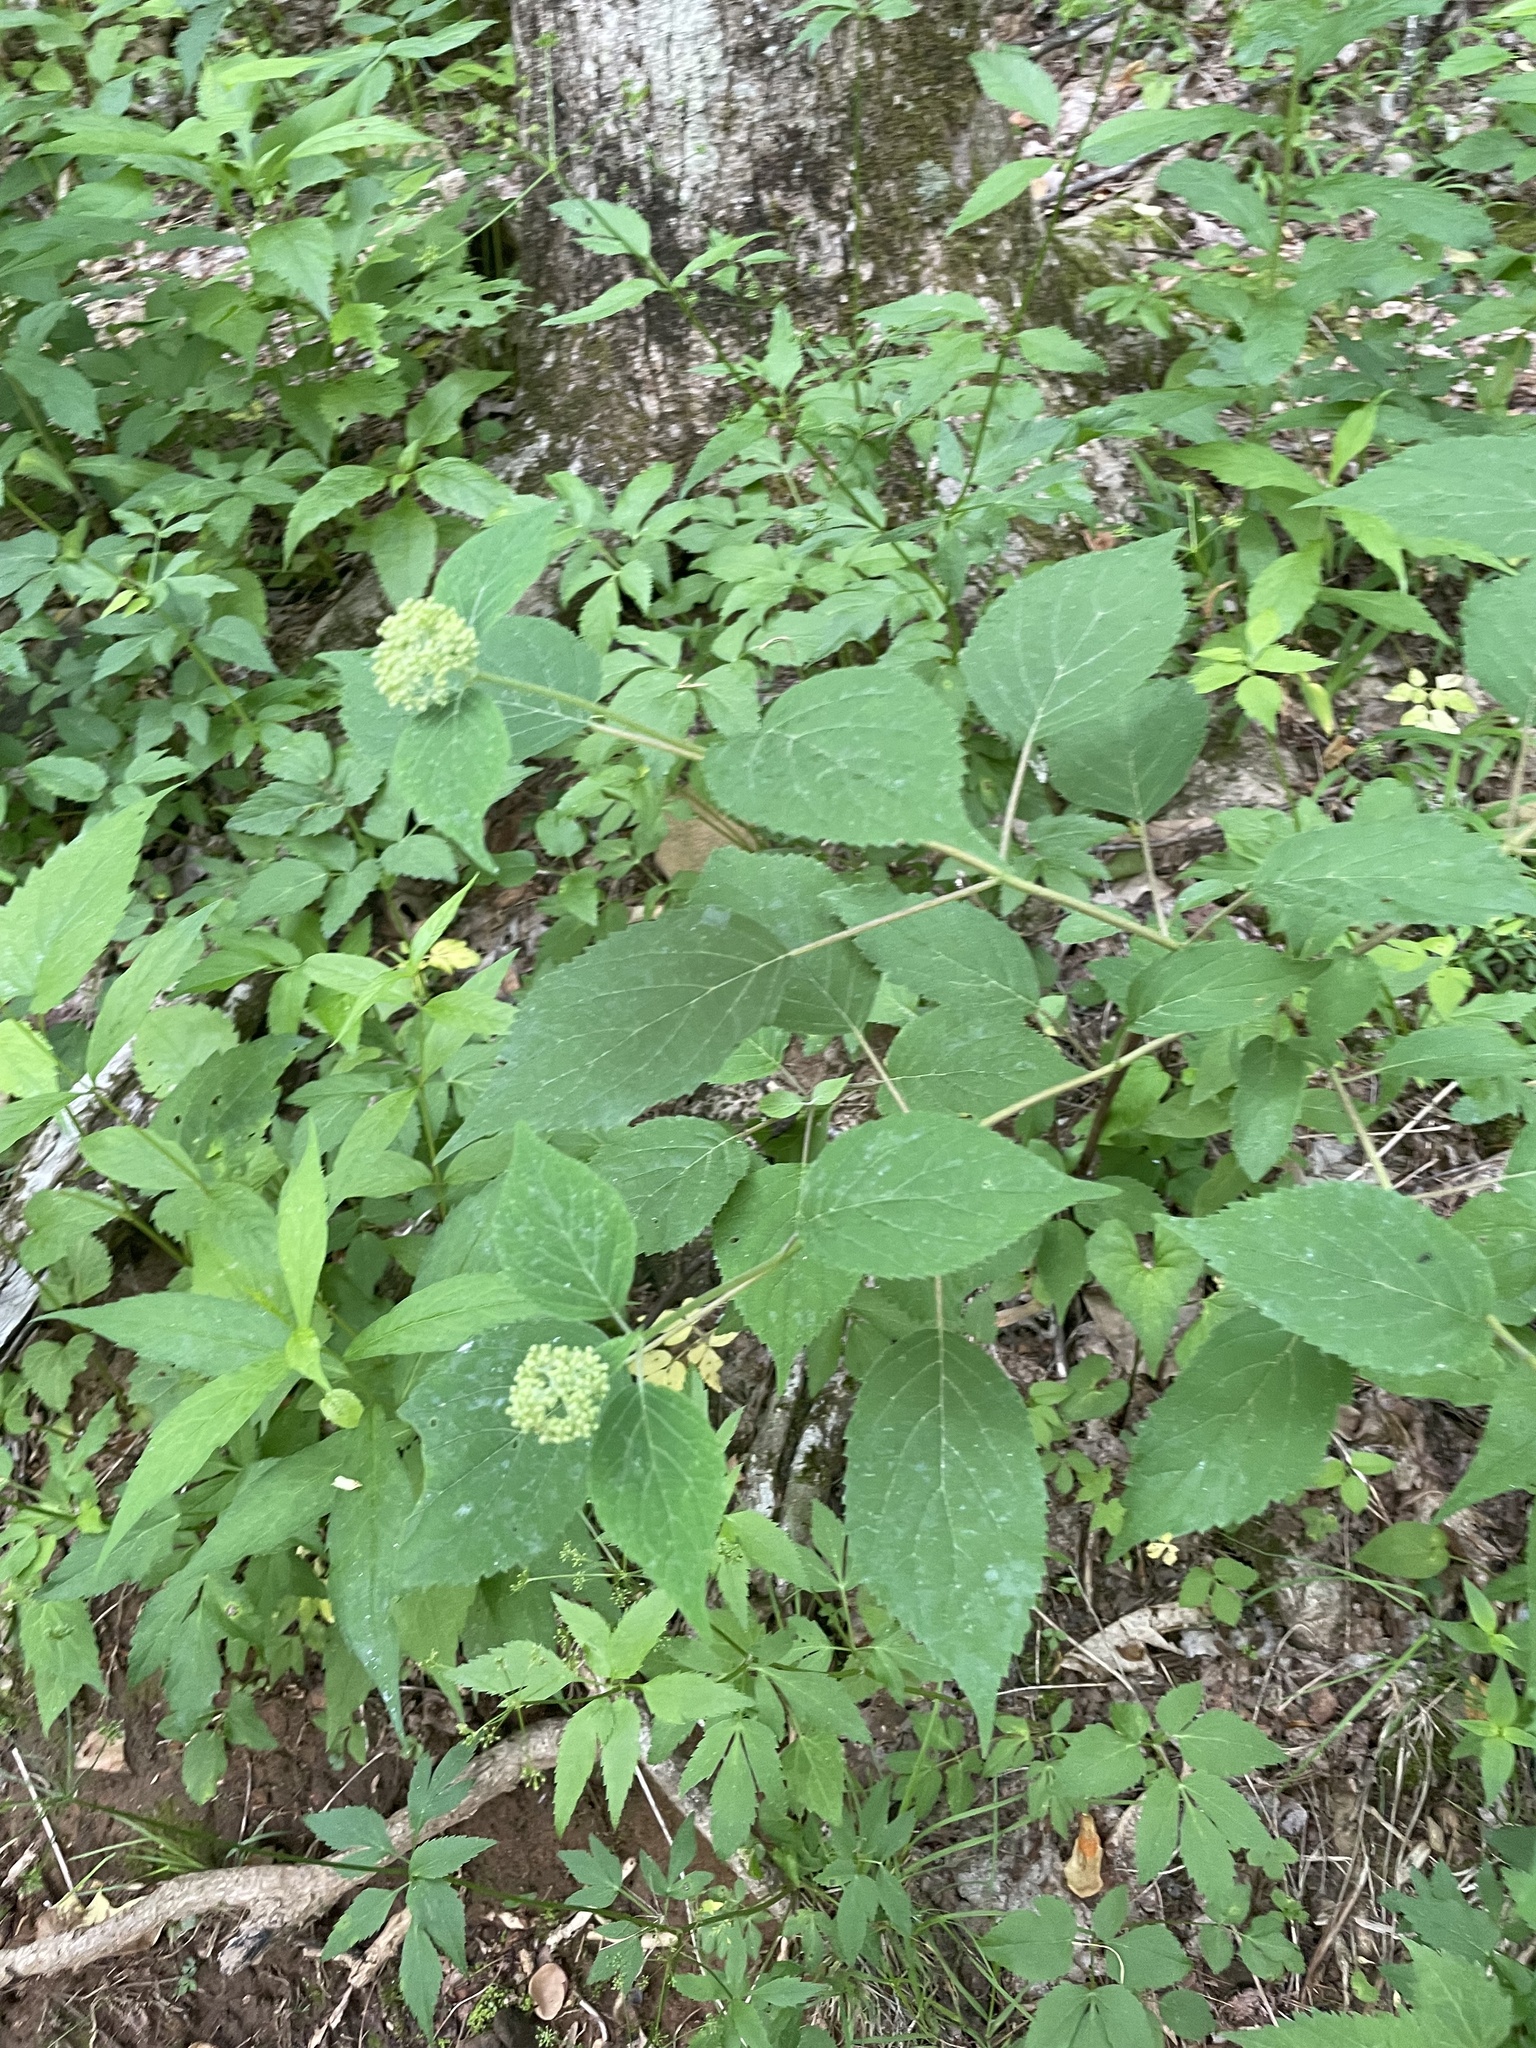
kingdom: Plantae
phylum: Tracheophyta
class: Magnoliopsida
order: Cornales
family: Hydrangeaceae
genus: Hydrangea
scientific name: Hydrangea arborescens
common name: Sevenbark
